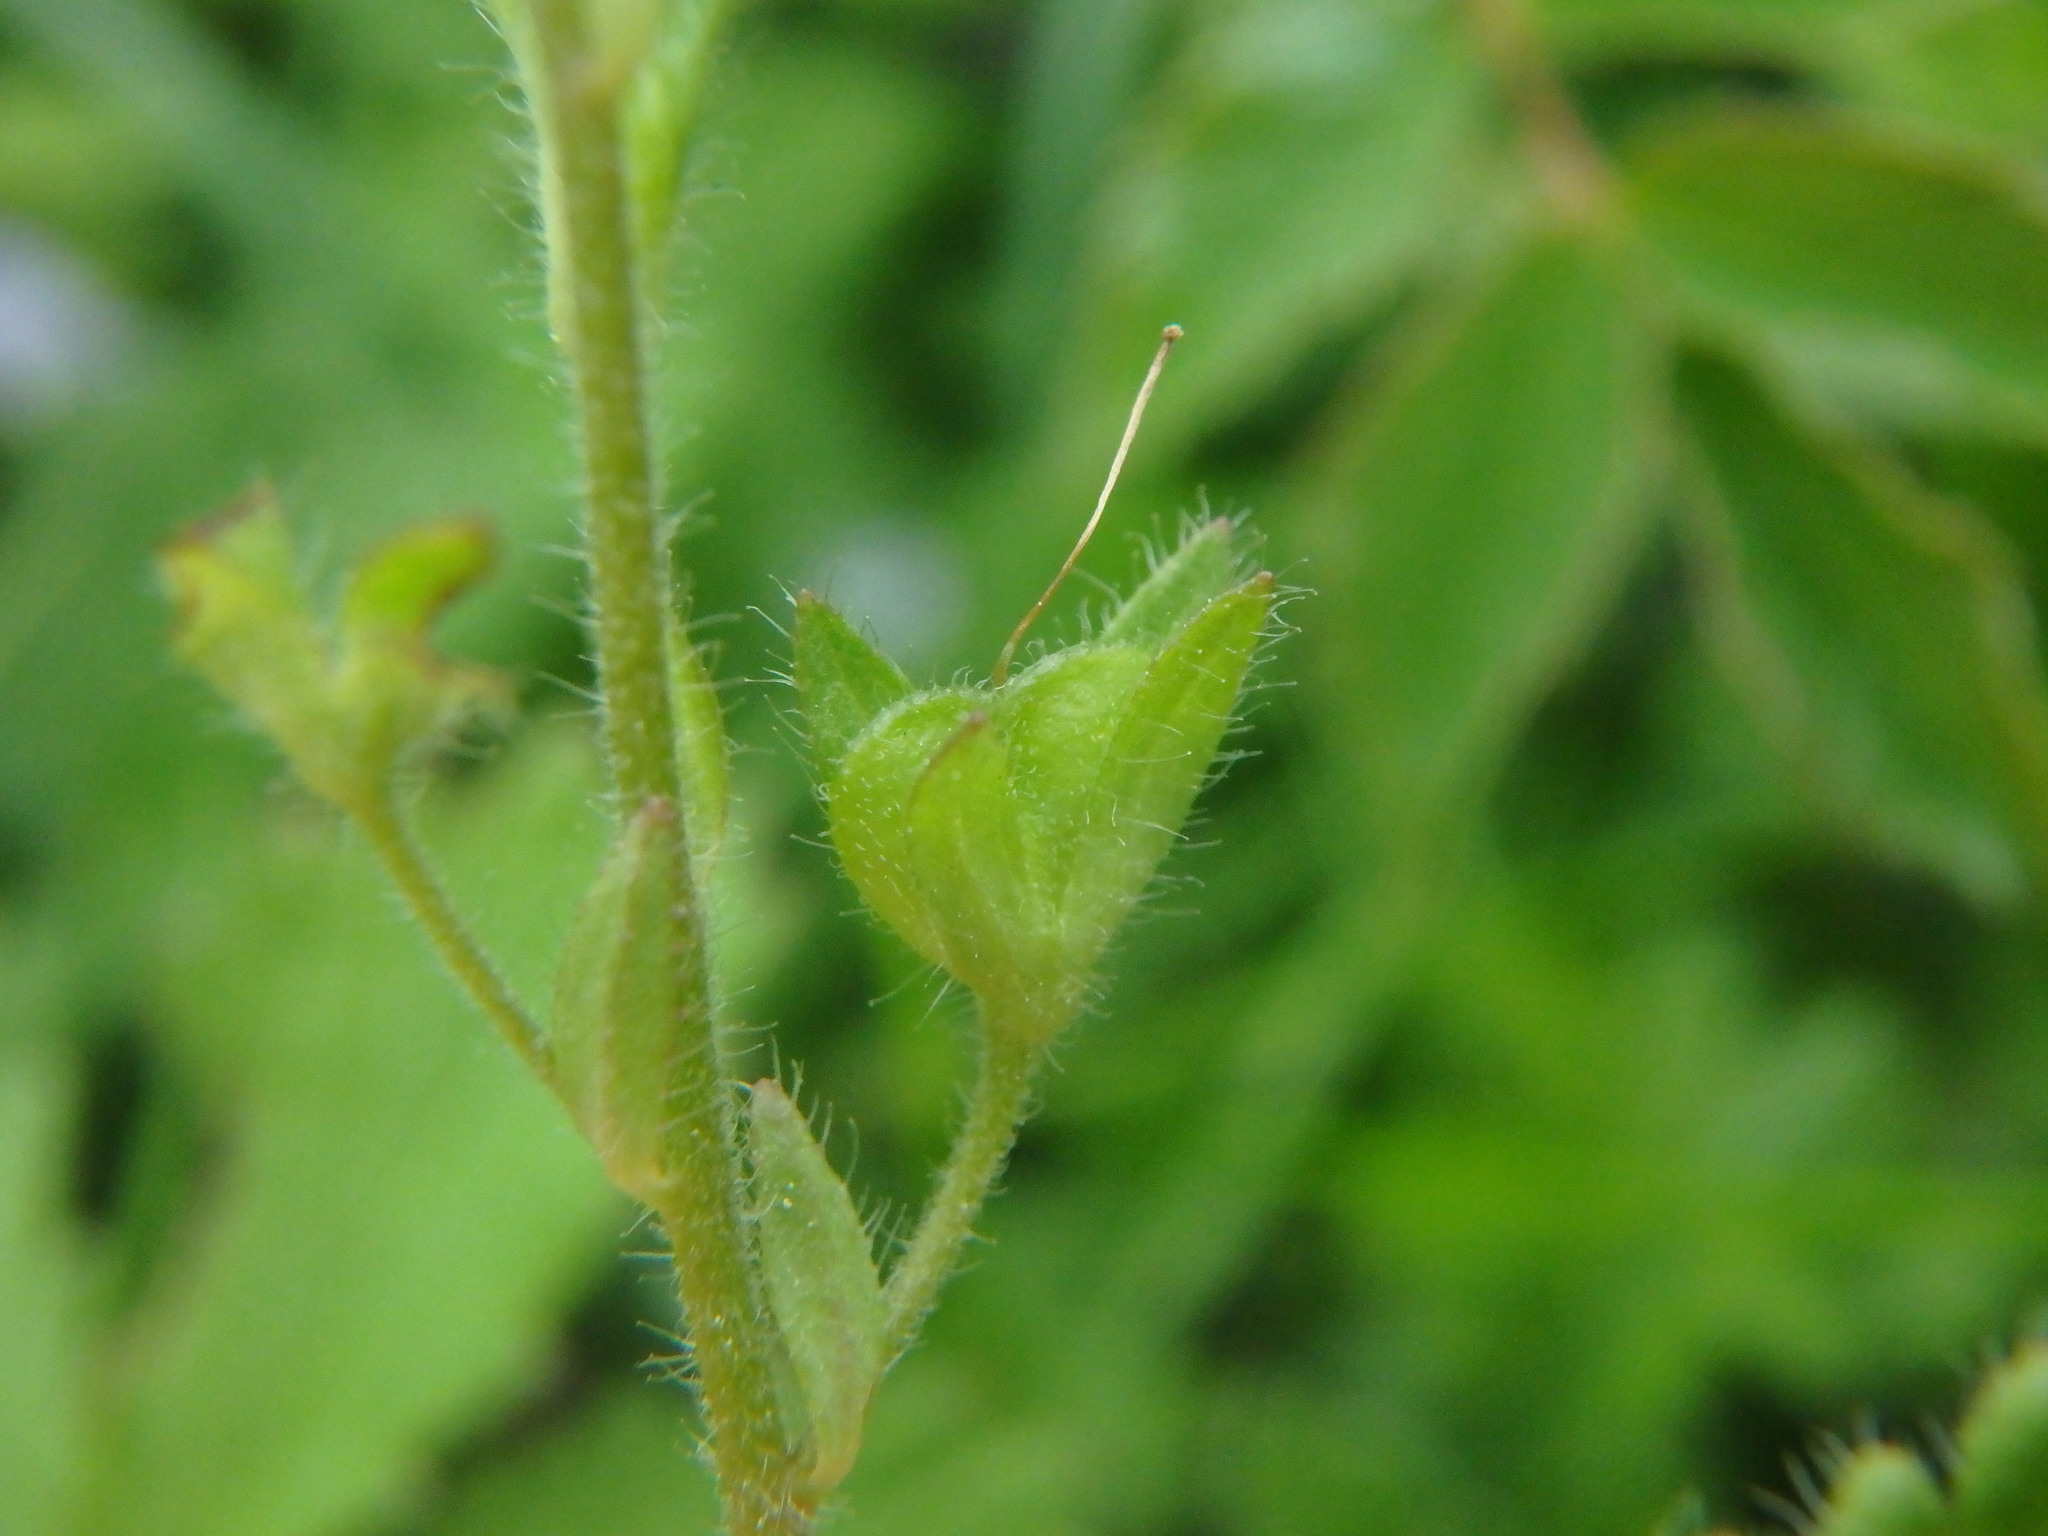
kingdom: Plantae
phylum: Tracheophyta
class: Magnoliopsida
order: Lamiales
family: Plantaginaceae
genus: Veronica
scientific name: Veronica chamaedrys
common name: Germander speedwell
